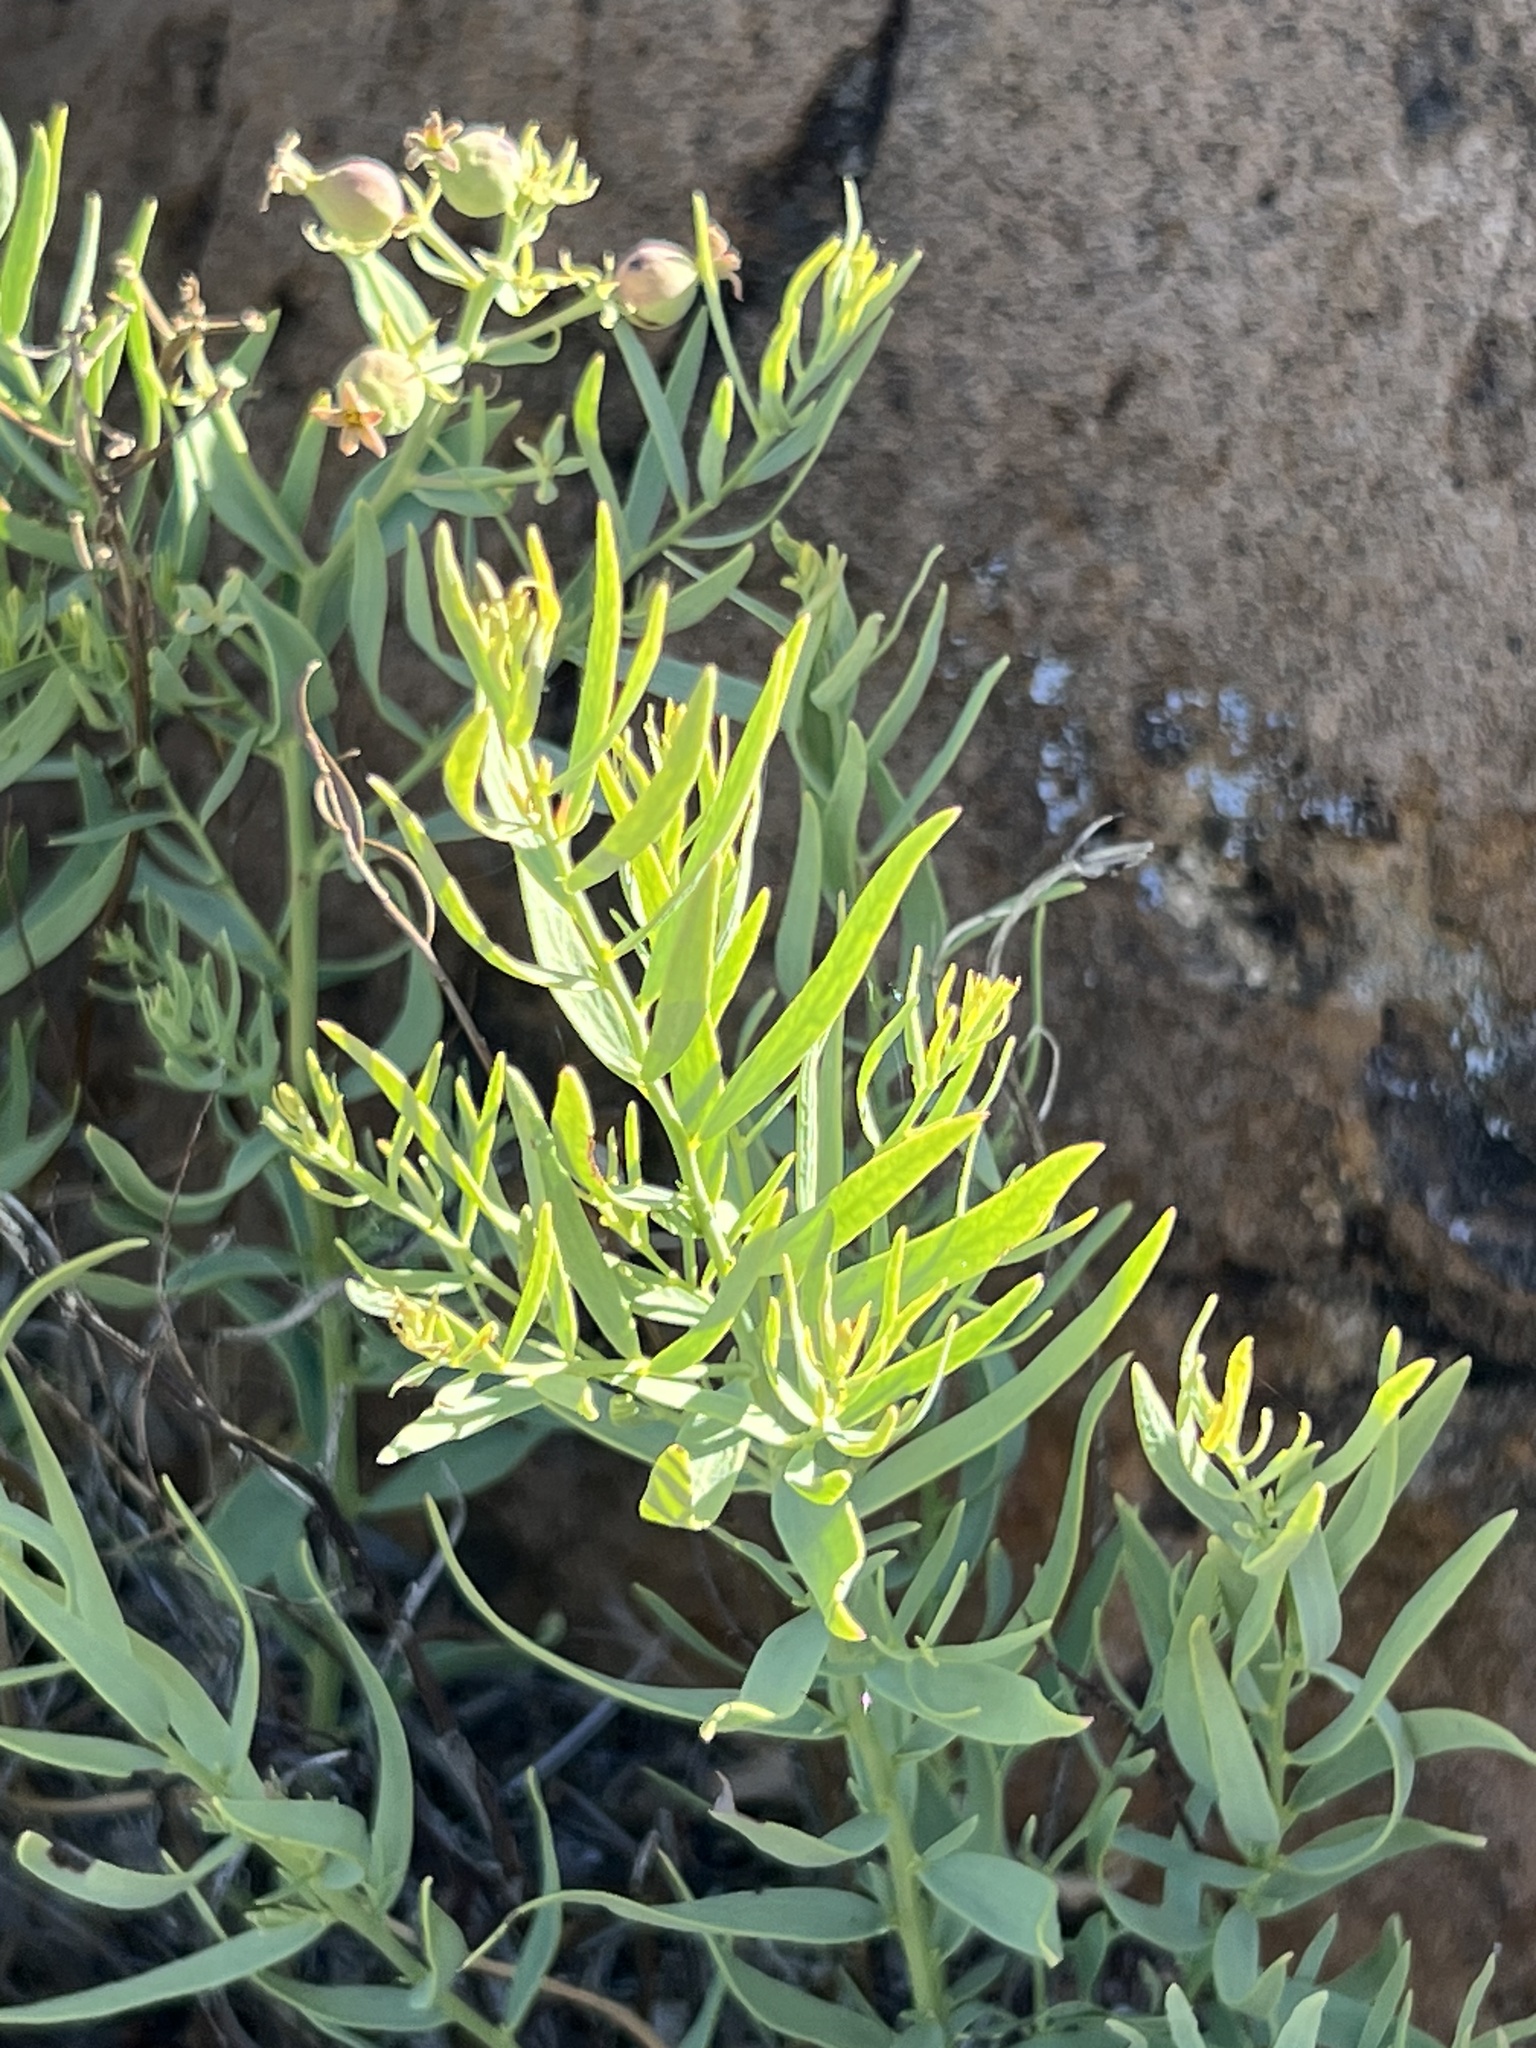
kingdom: Plantae
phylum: Tracheophyta
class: Magnoliopsida
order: Santalales
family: Comandraceae
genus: Comandra
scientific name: Comandra umbellata
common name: Bastard toadflax
